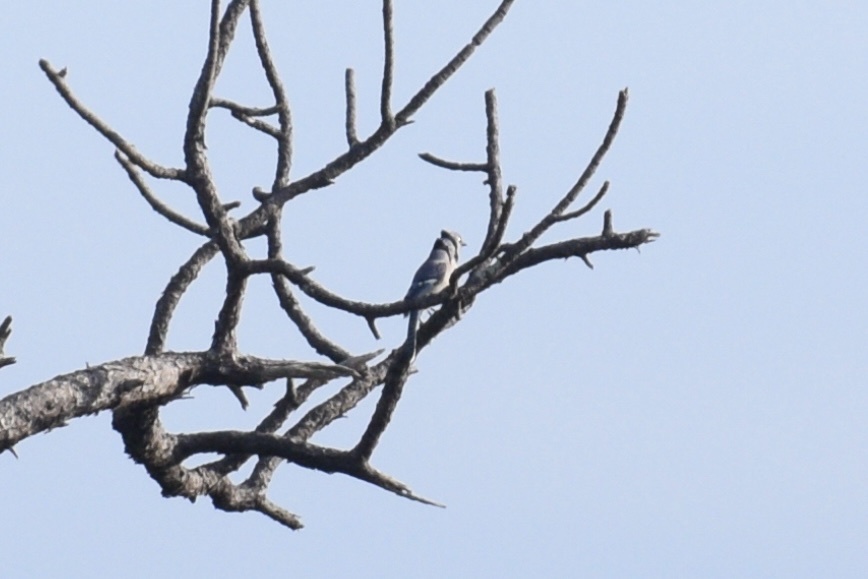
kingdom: Animalia
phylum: Chordata
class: Aves
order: Passeriformes
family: Corvidae
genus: Cyanocitta
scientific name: Cyanocitta cristata
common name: Blue jay
